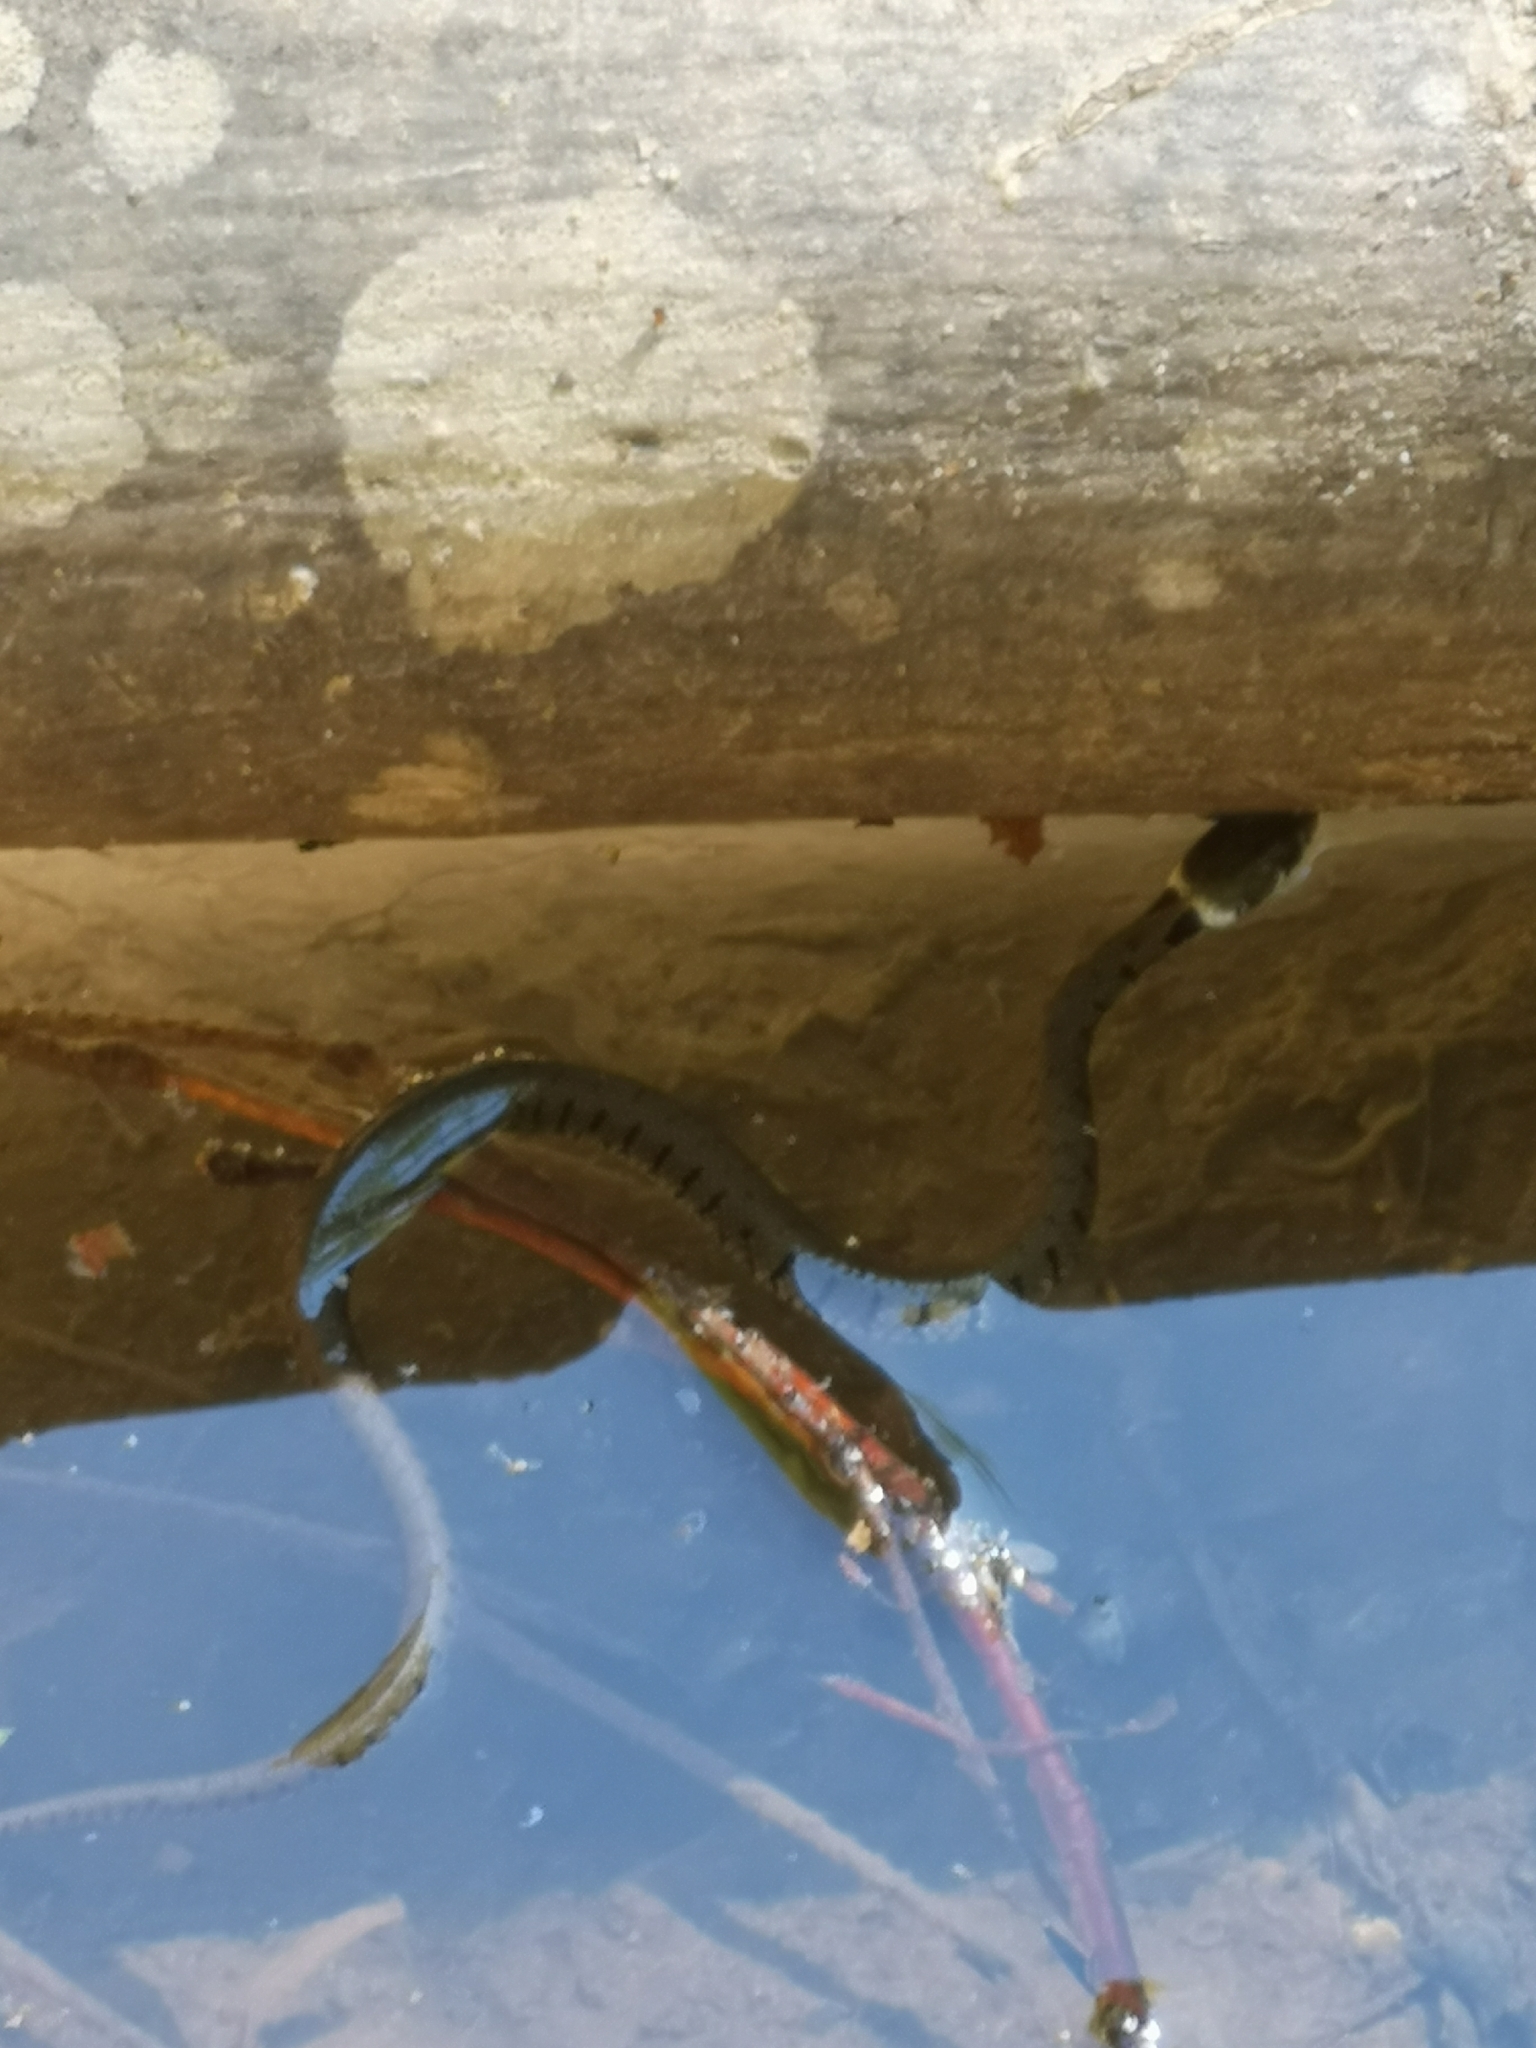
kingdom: Animalia
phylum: Chordata
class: Squamata
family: Colubridae
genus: Natrix
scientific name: Natrix helvetica
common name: Banded grass snake
